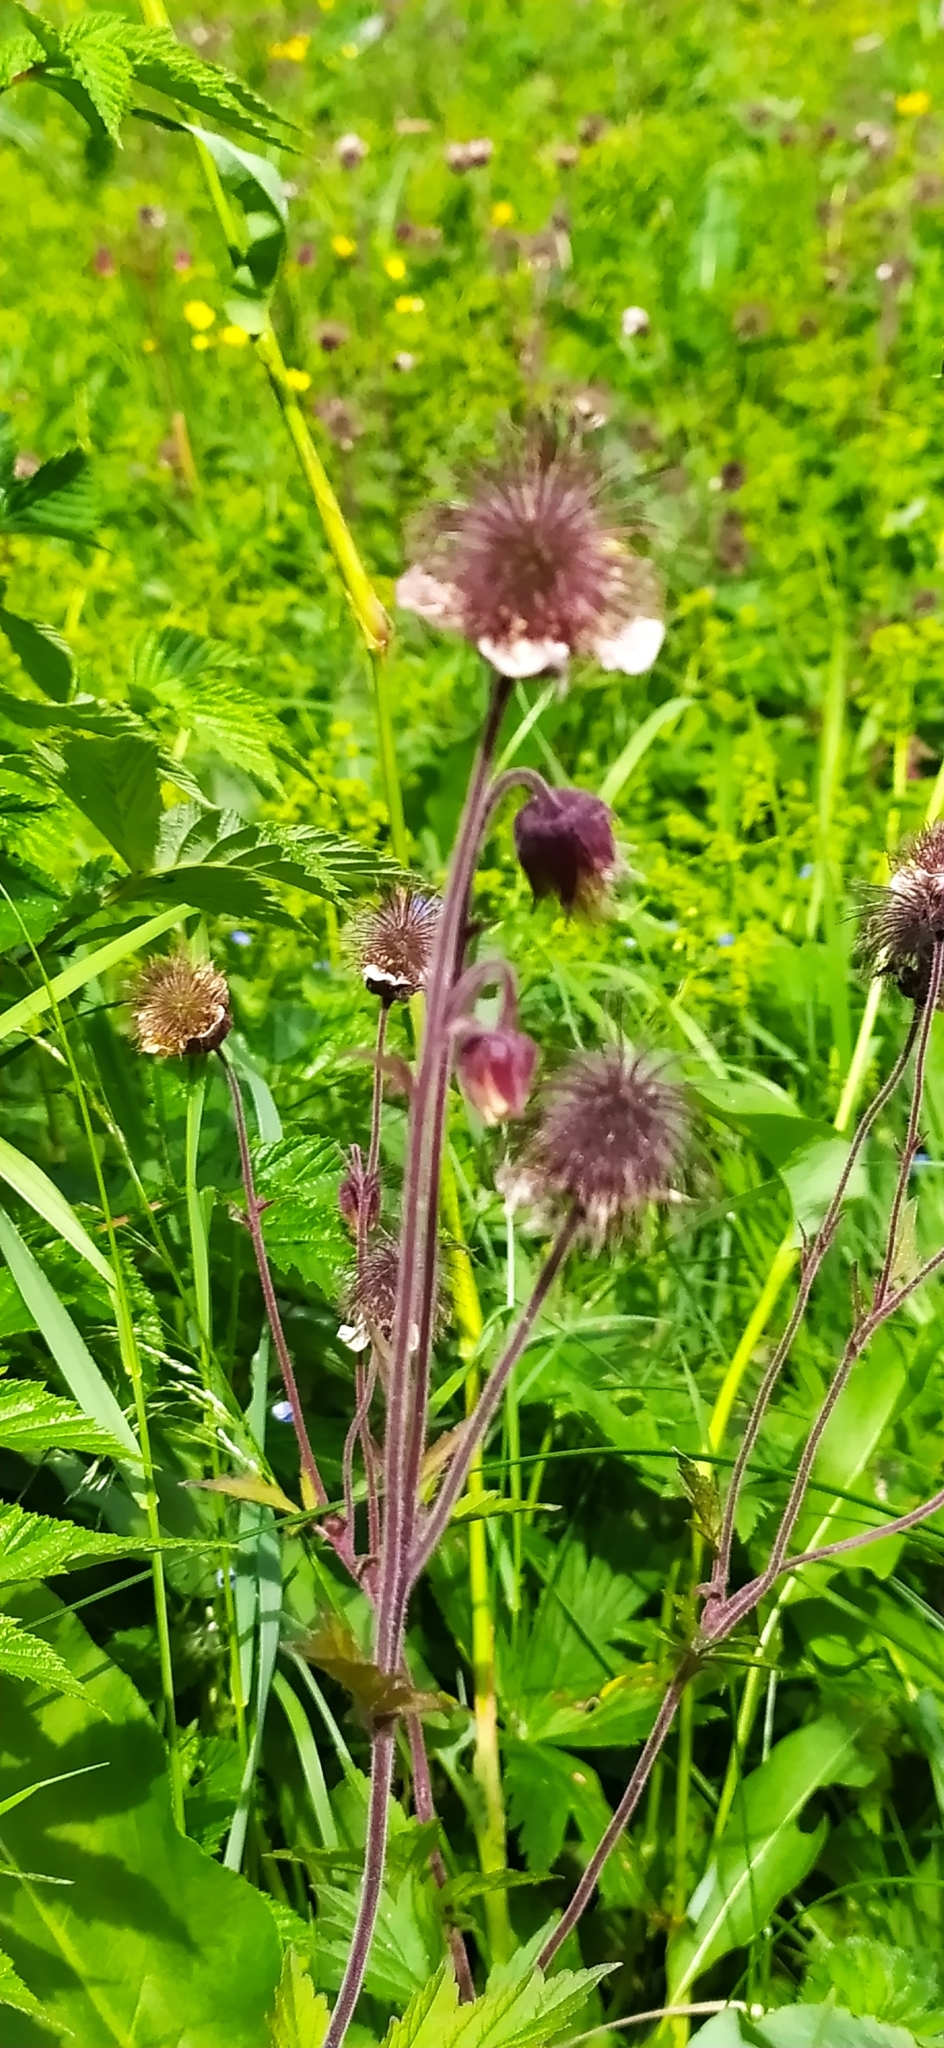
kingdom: Plantae
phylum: Tracheophyta
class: Magnoliopsida
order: Rosales
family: Rosaceae
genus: Geum
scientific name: Geum rivale
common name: Water avens
